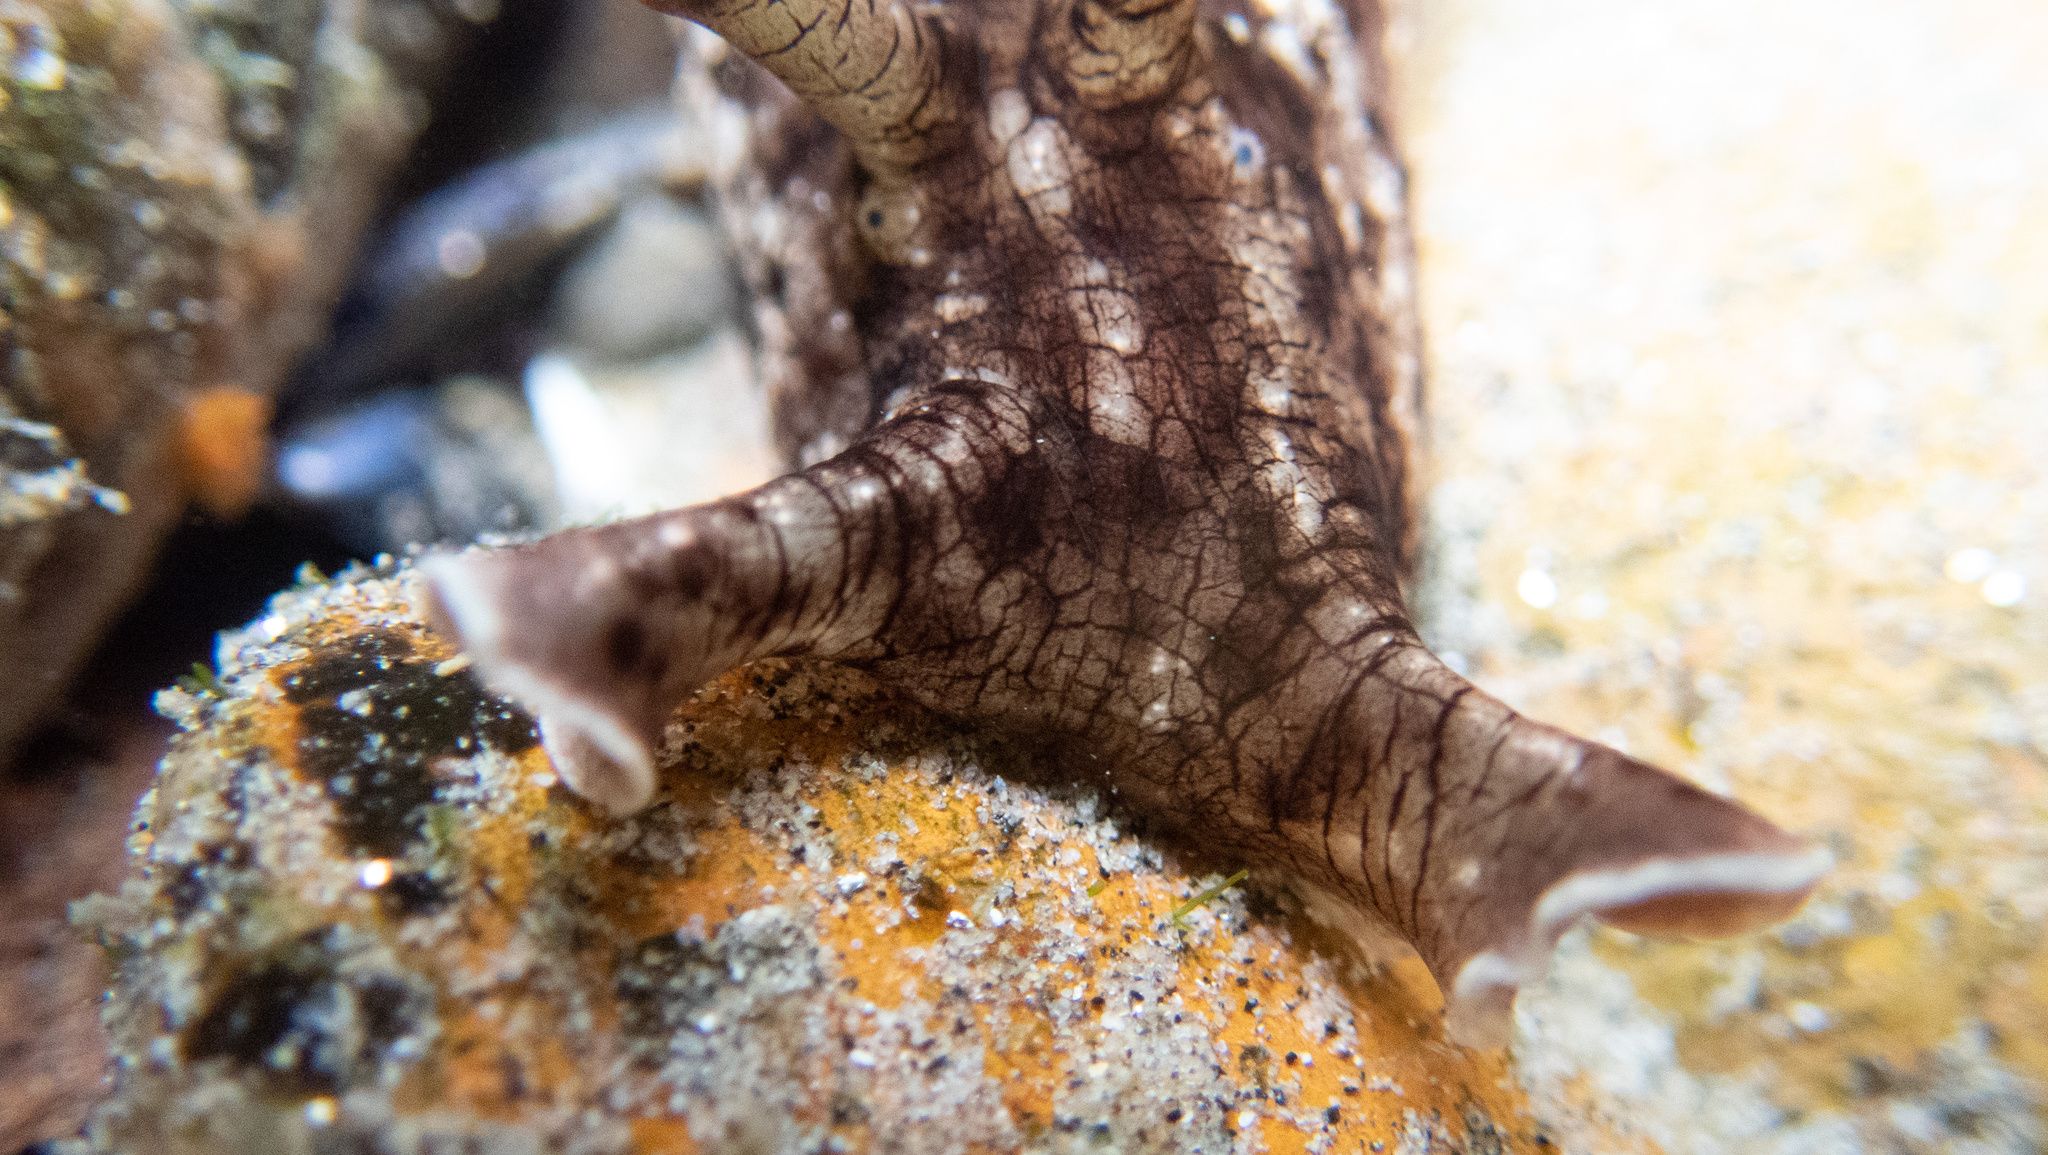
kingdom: Animalia
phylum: Mollusca
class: Gastropoda
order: Aplysiida
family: Aplysiidae
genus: Aplysia
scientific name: Aplysia californica
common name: California seahare
